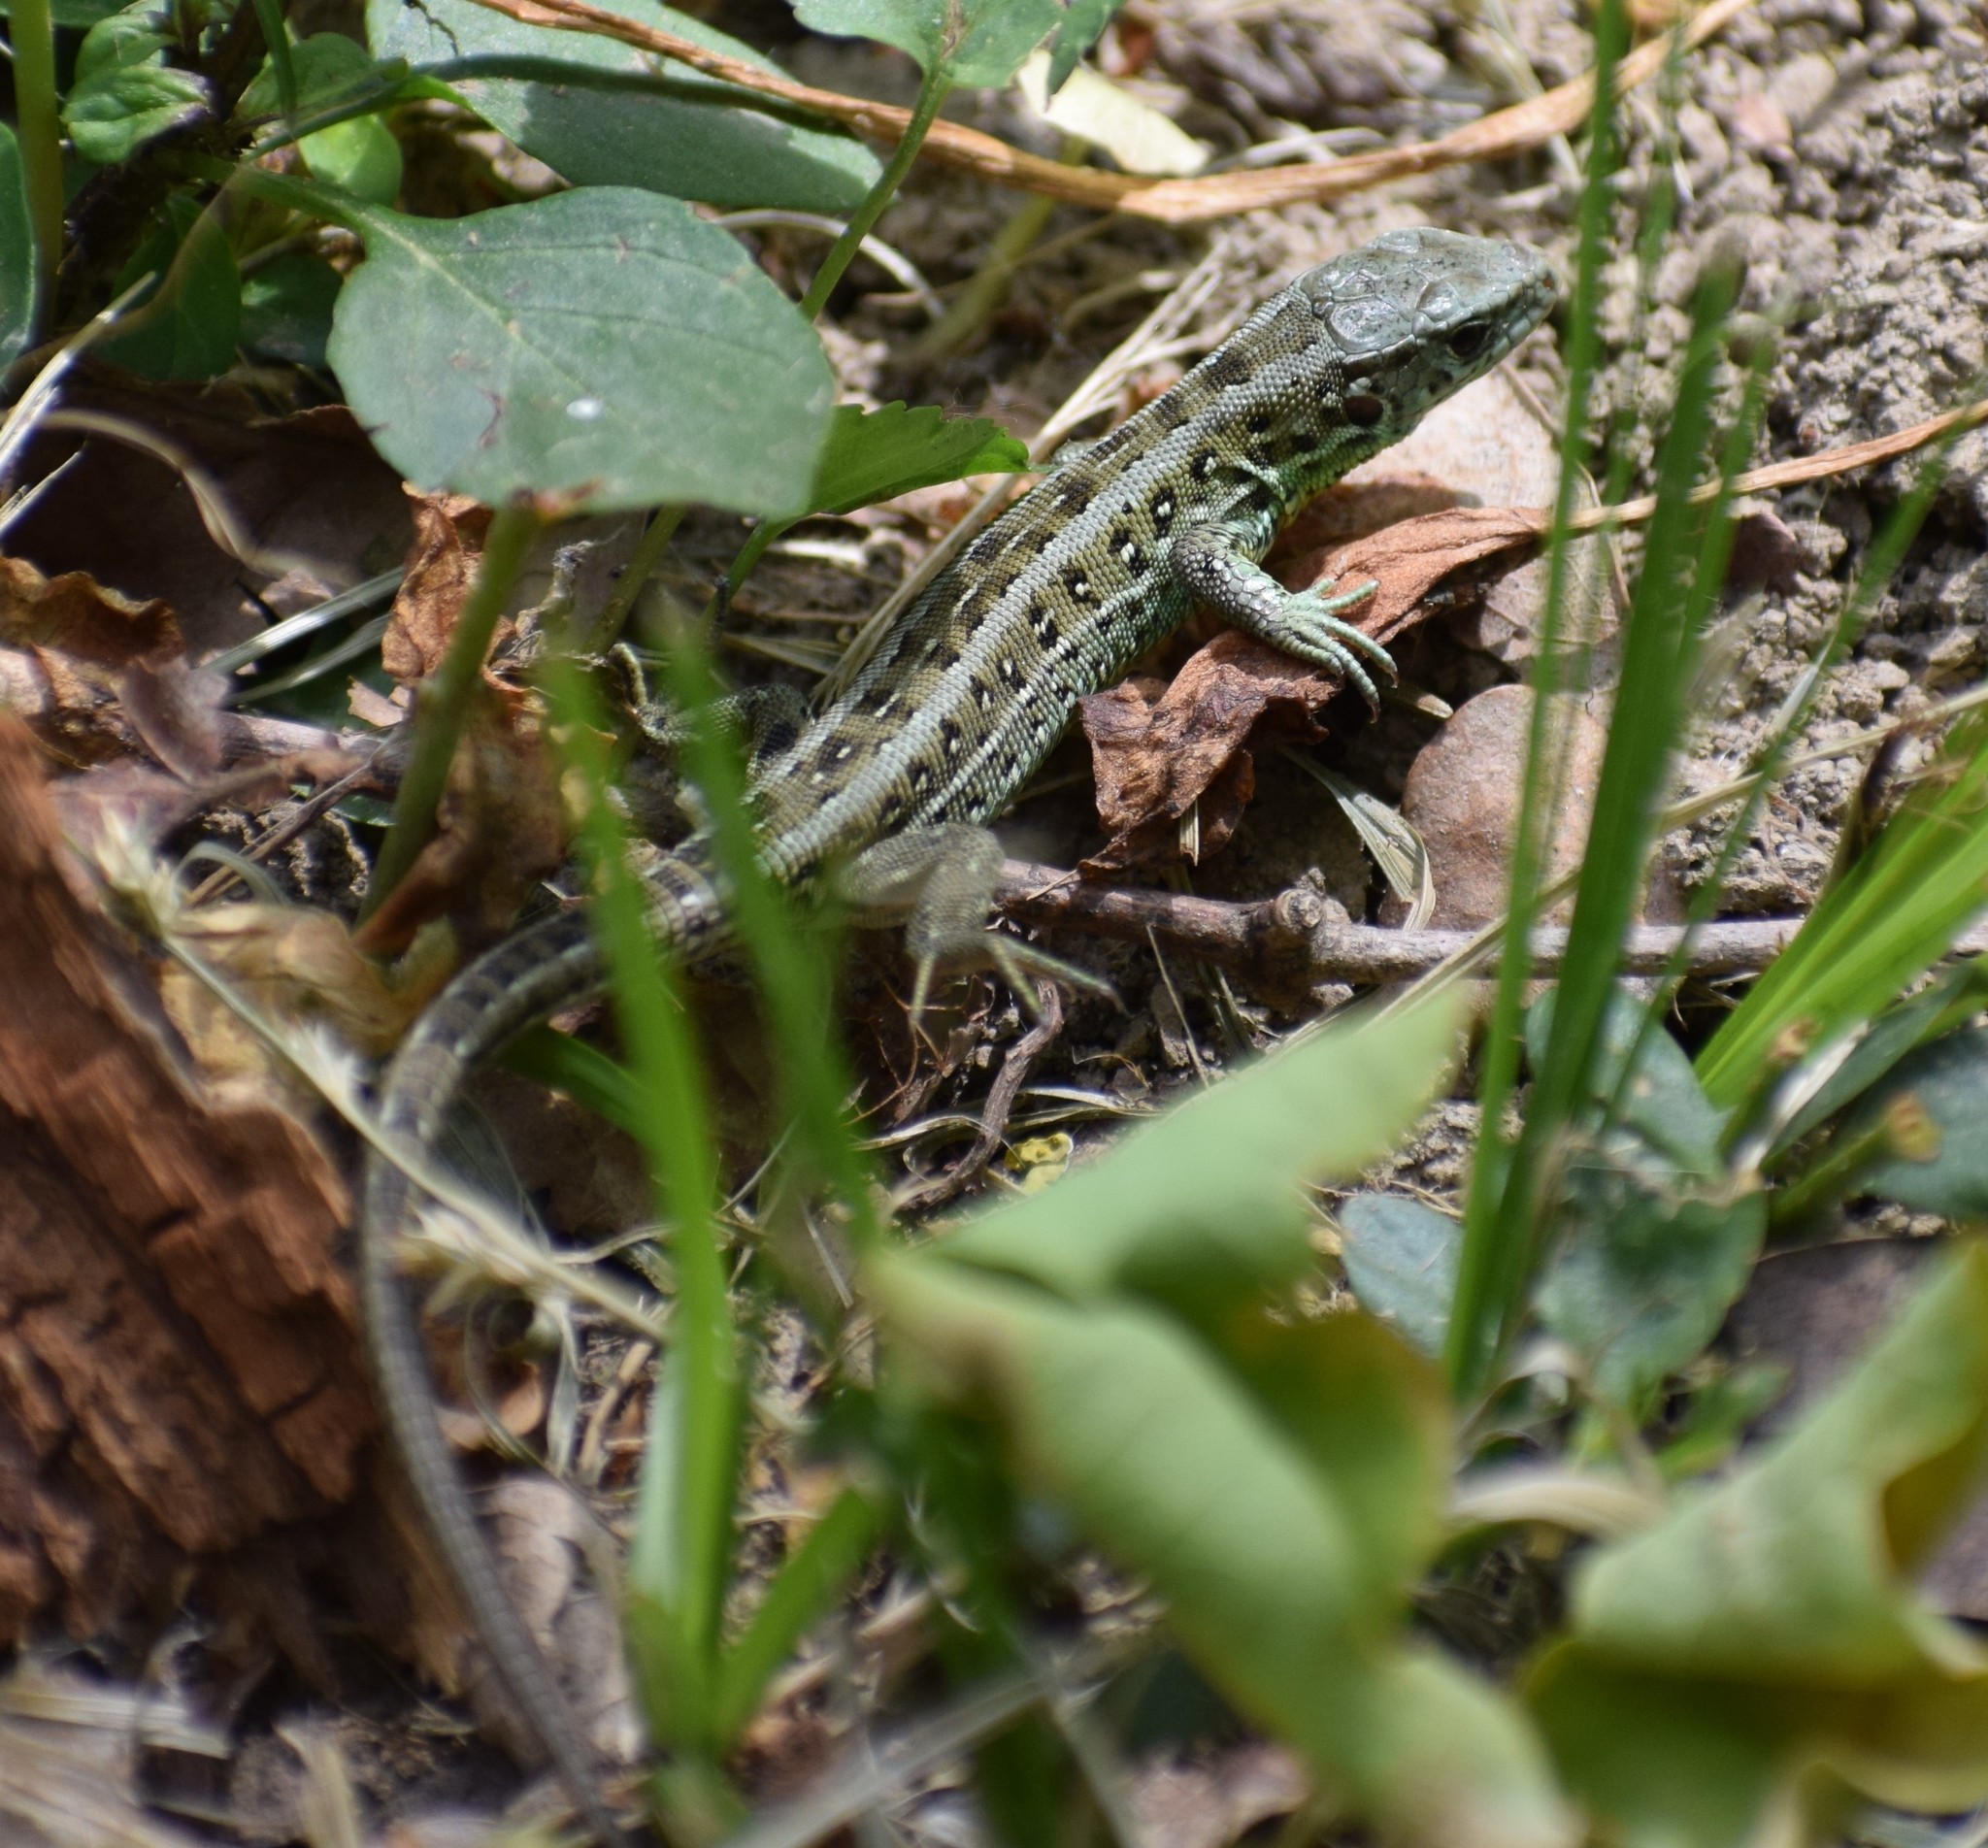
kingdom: Animalia
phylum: Chordata
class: Squamata
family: Lacertidae
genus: Lacerta
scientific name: Lacerta agilis
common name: Sand lizard
